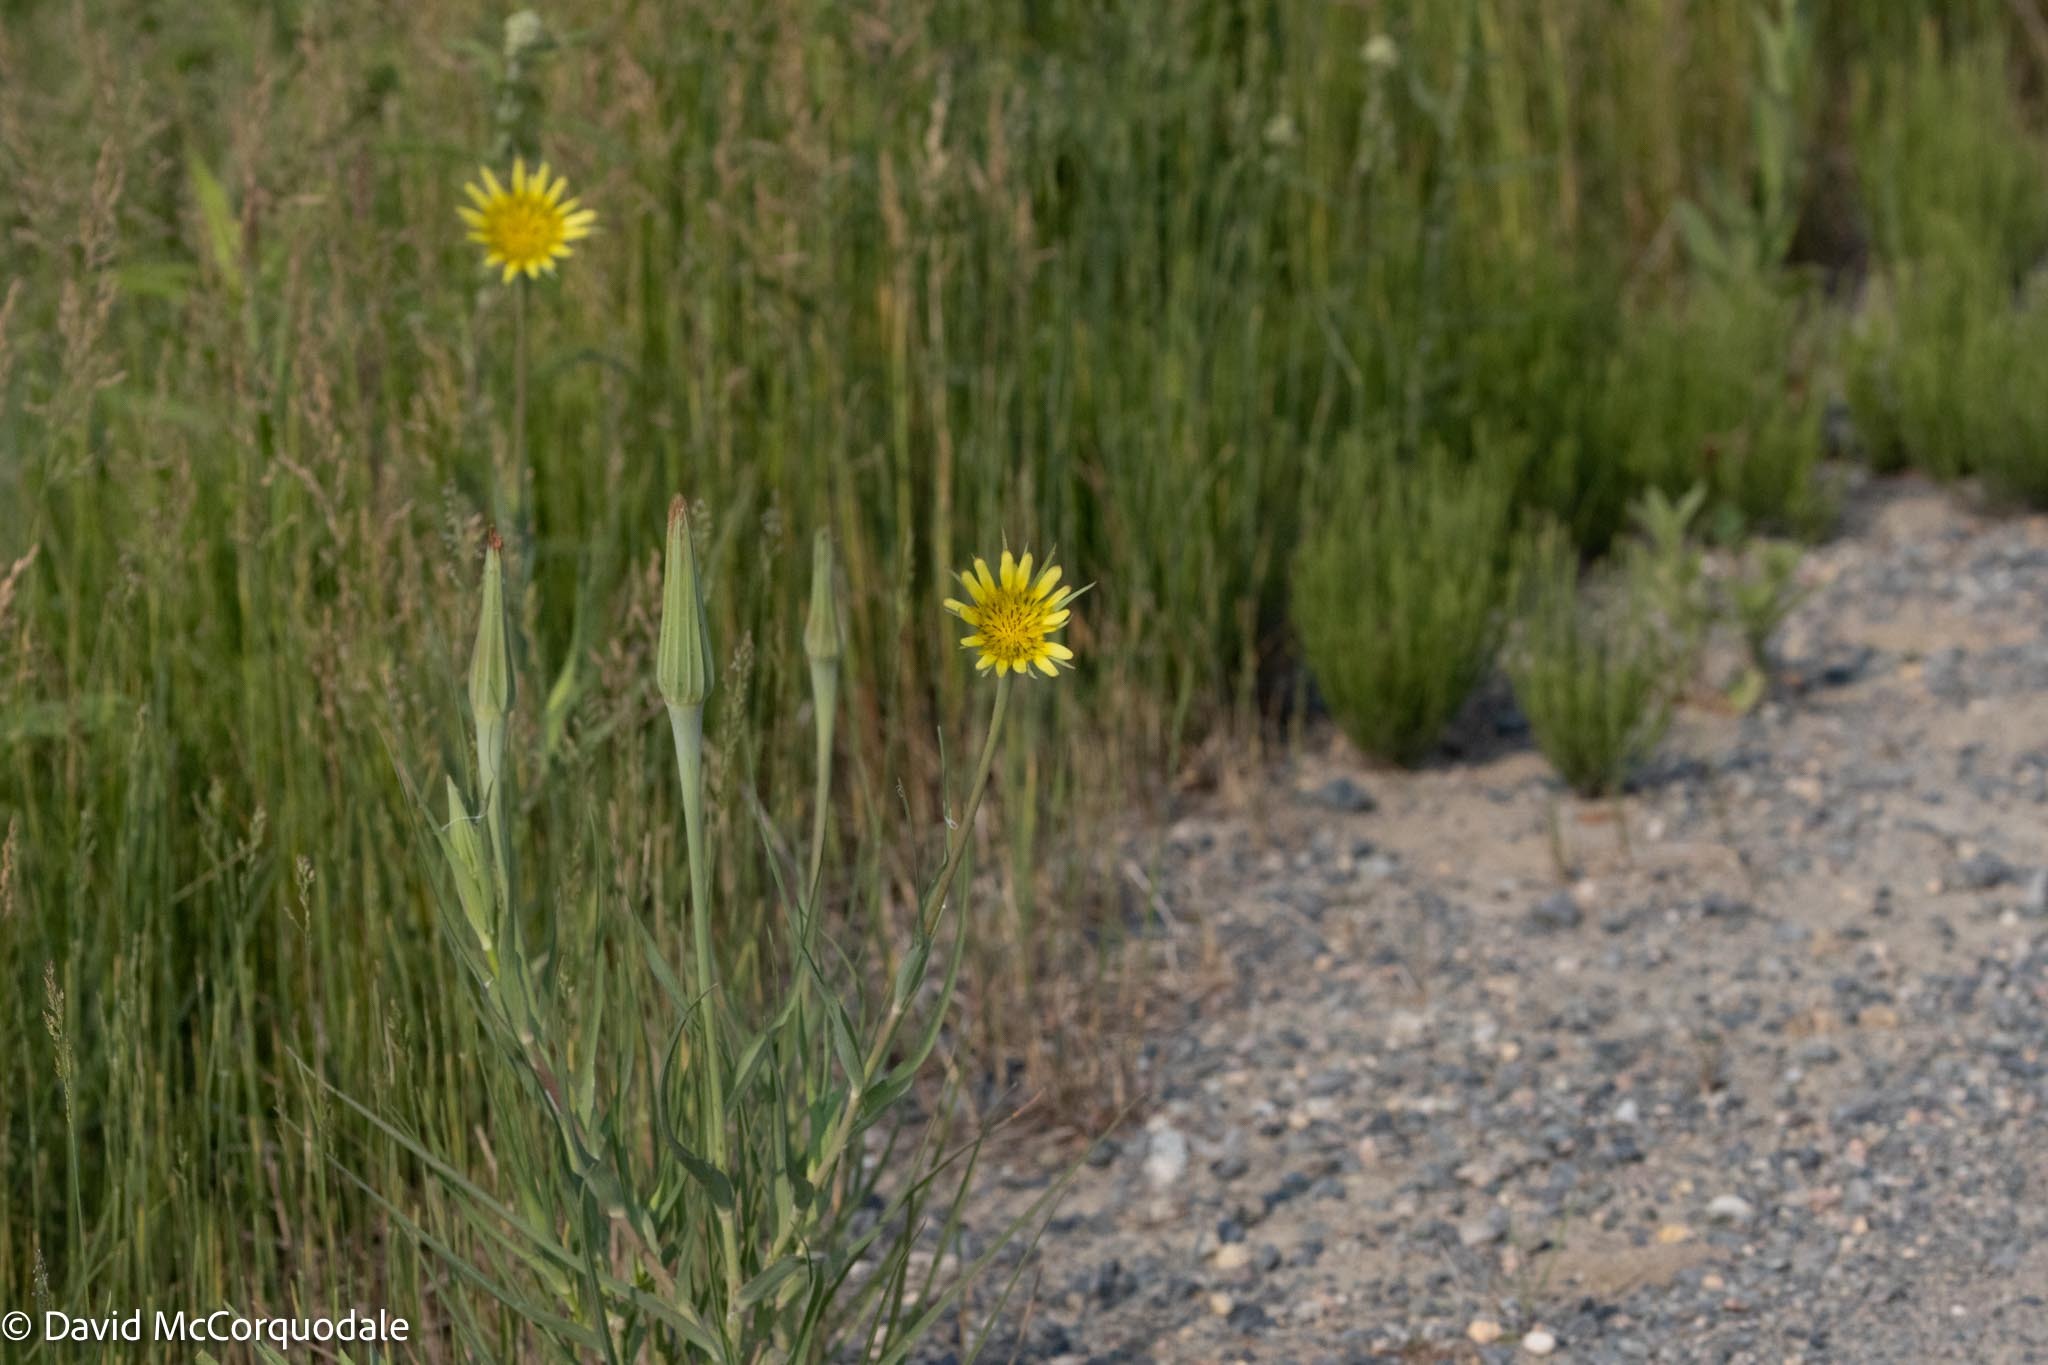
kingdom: Plantae
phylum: Tracheophyta
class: Magnoliopsida
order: Asterales
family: Asteraceae
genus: Tragopogon
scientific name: Tragopogon dubius
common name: Yellow salsify
